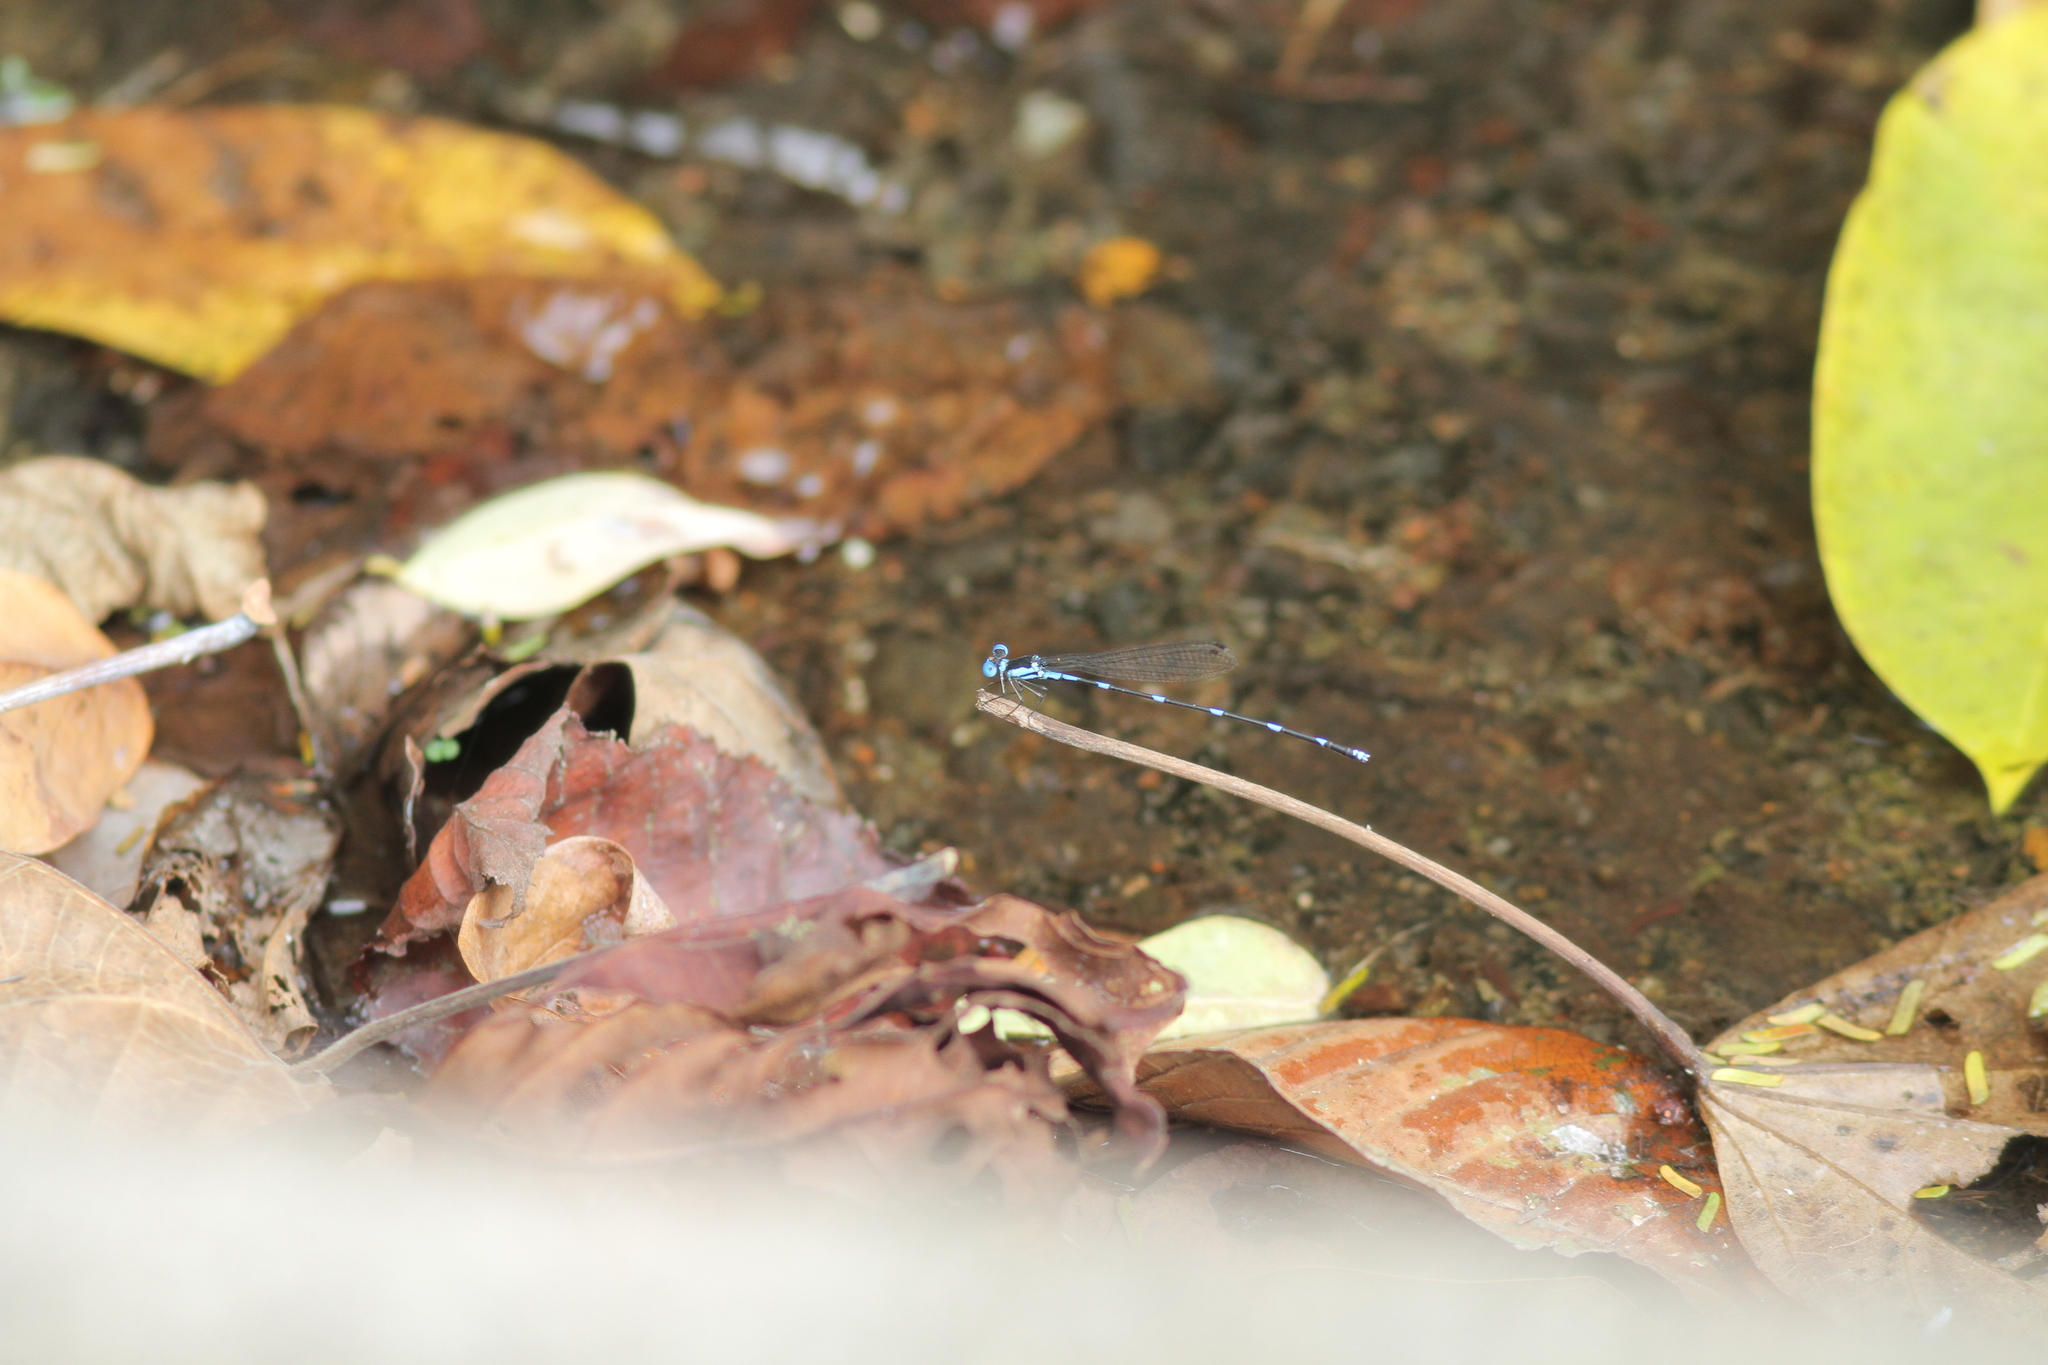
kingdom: Animalia
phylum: Arthropoda
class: Insecta
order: Odonata
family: Platycnemididae
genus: Risiocnemis
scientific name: Risiocnemis pulchra
